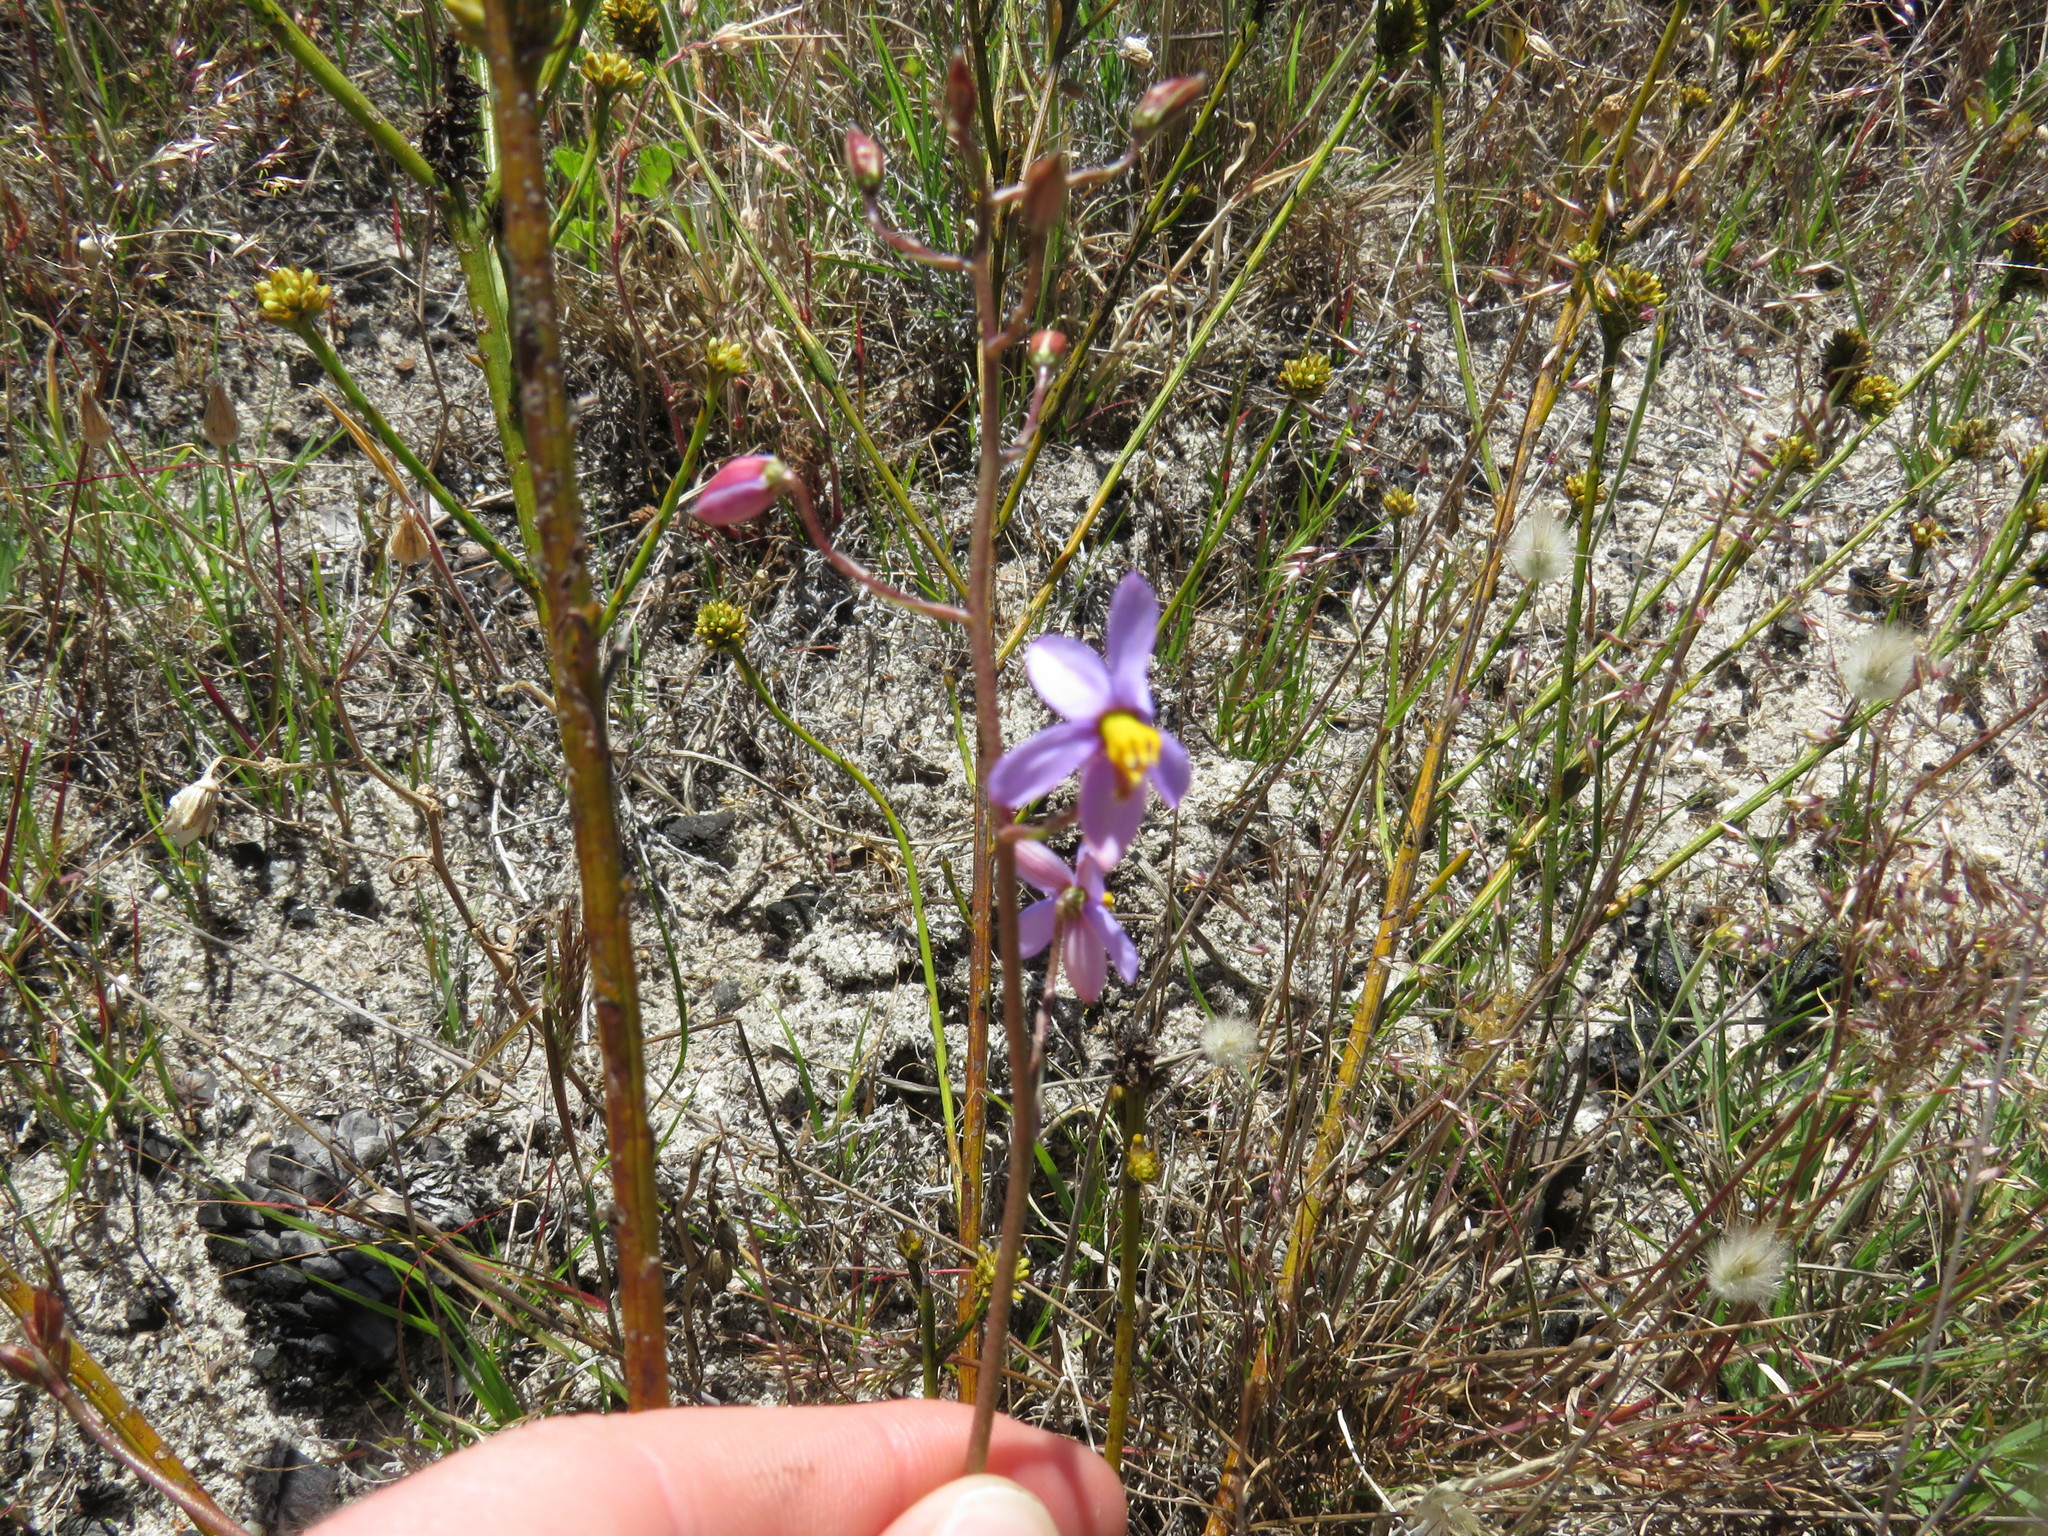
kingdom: Plantae
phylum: Tracheophyta
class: Liliopsida
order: Asparagales
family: Tecophilaeaceae
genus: Cyanella
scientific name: Cyanella hyacinthoides
